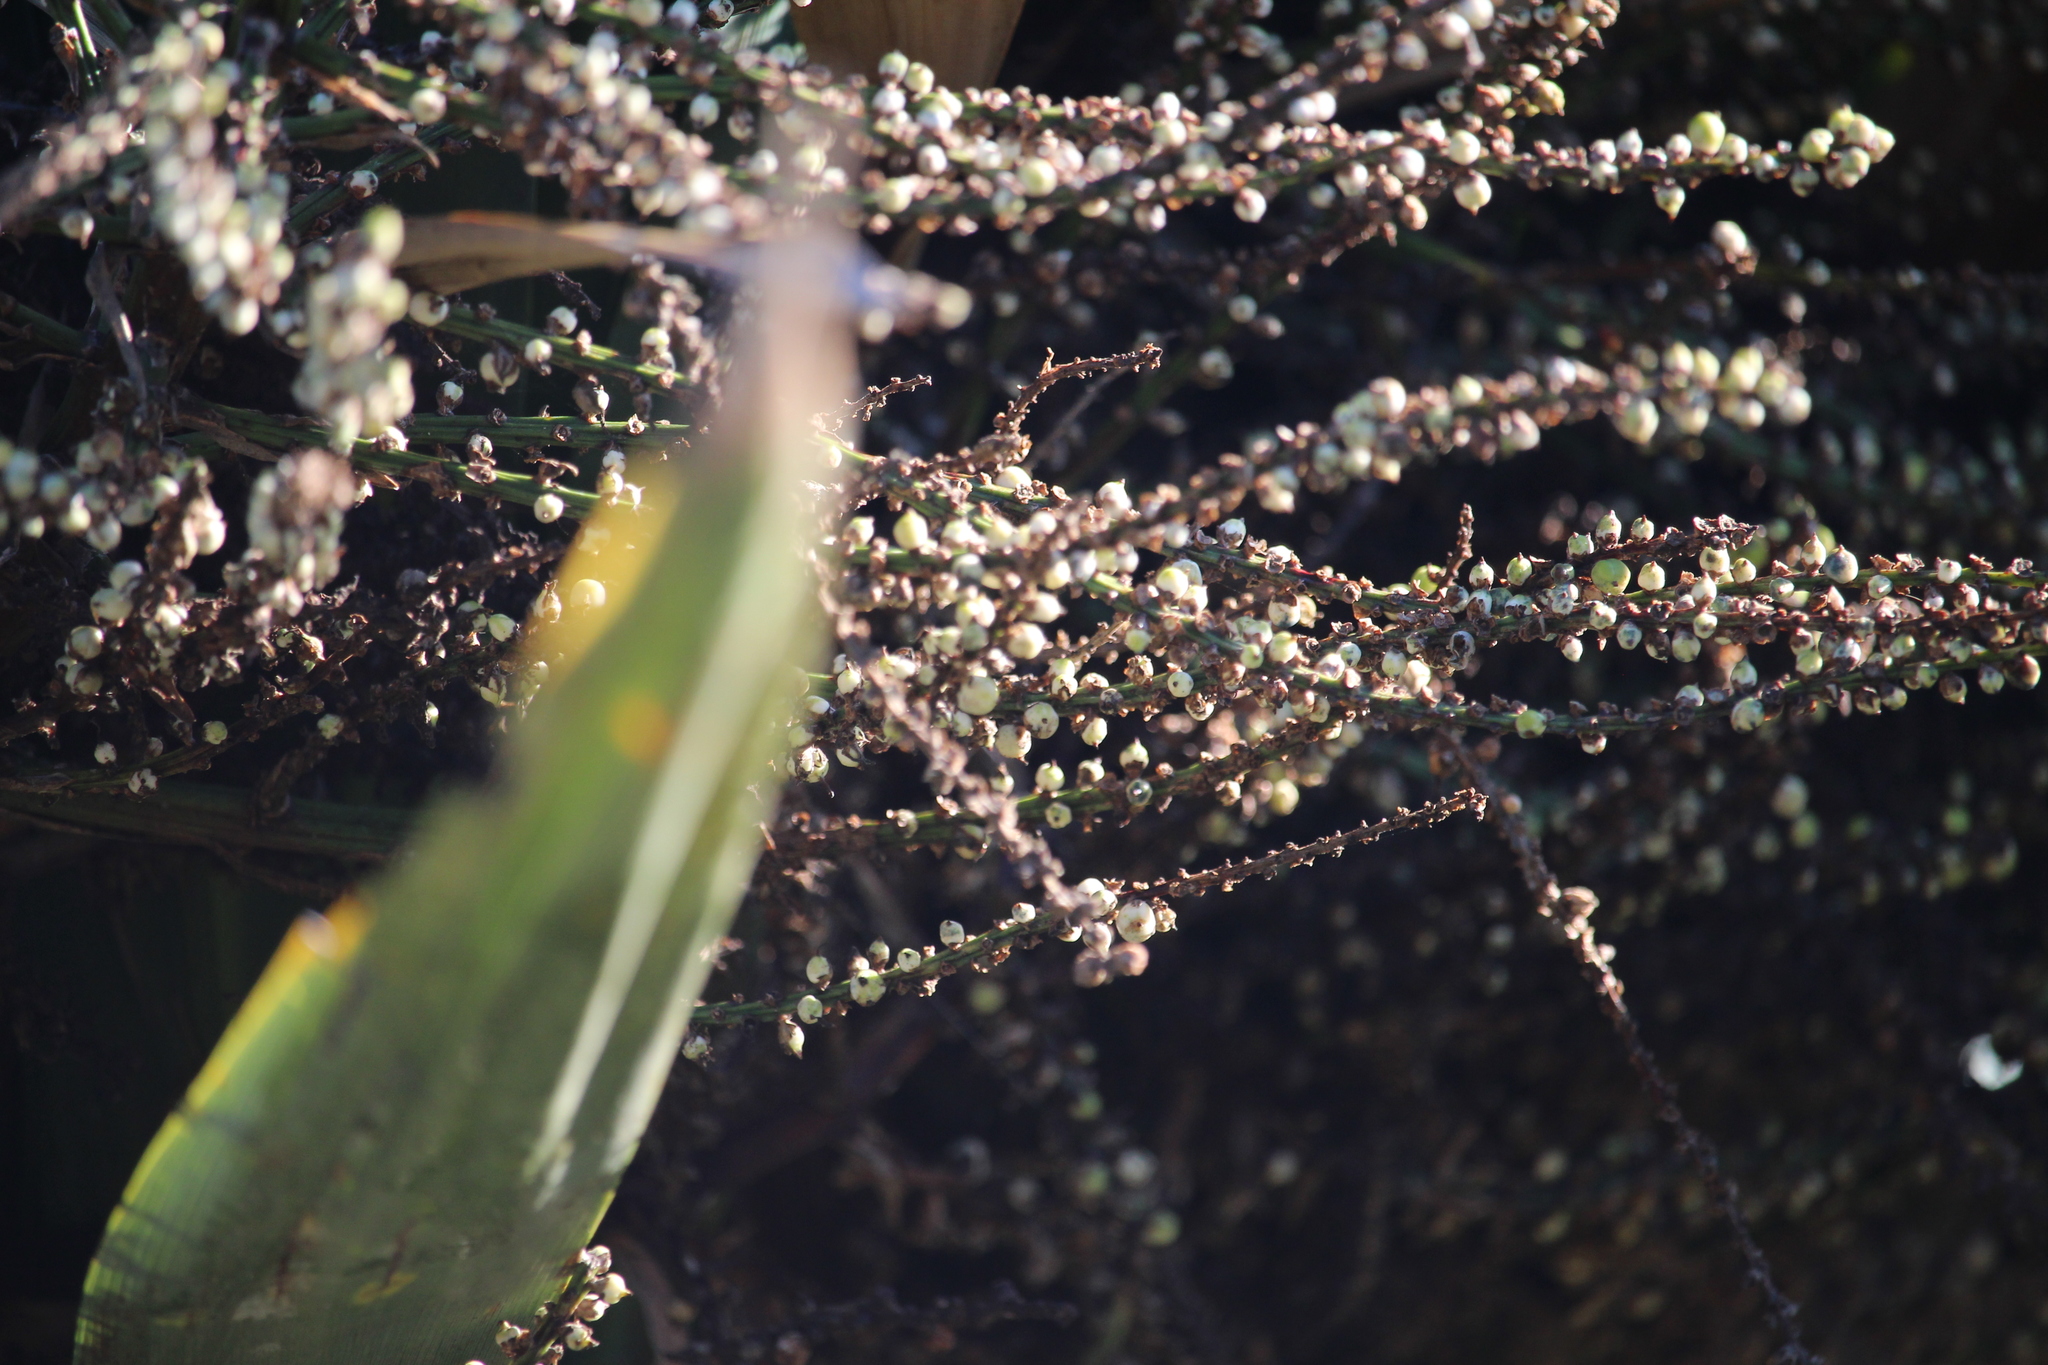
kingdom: Plantae
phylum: Tracheophyta
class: Liliopsida
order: Asparagales
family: Asparagaceae
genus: Cordyline
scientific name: Cordyline australis
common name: Cabbage-palm
